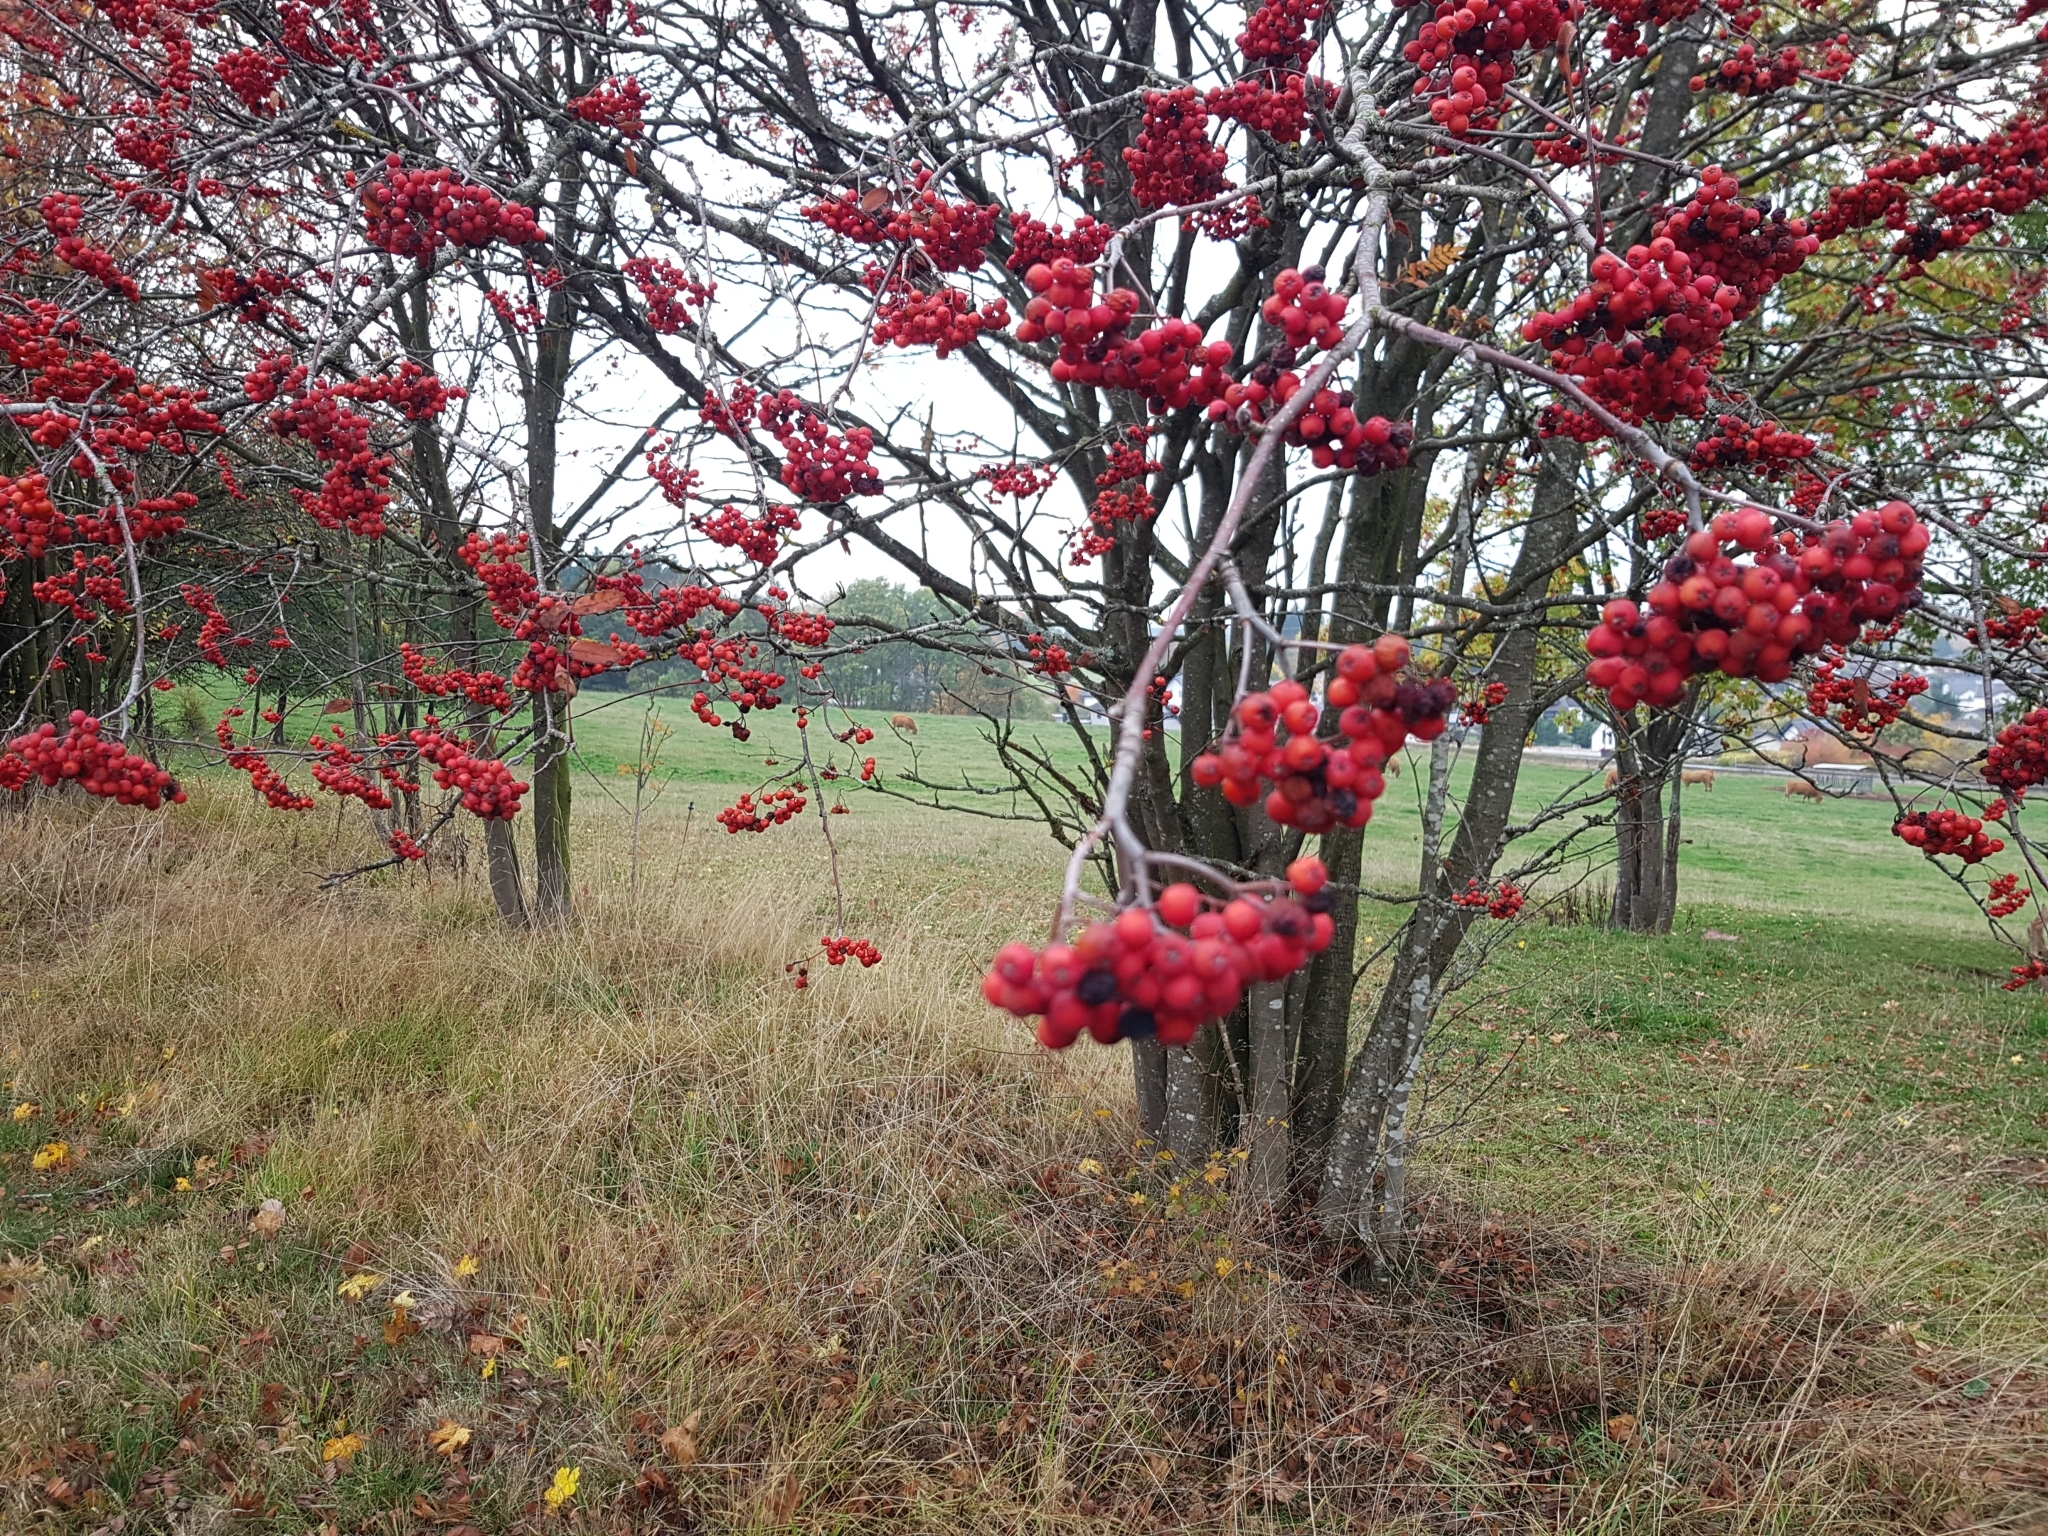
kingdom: Plantae
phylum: Tracheophyta
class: Magnoliopsida
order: Rosales
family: Rosaceae
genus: Sorbus
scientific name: Sorbus aucuparia
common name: Rowan
